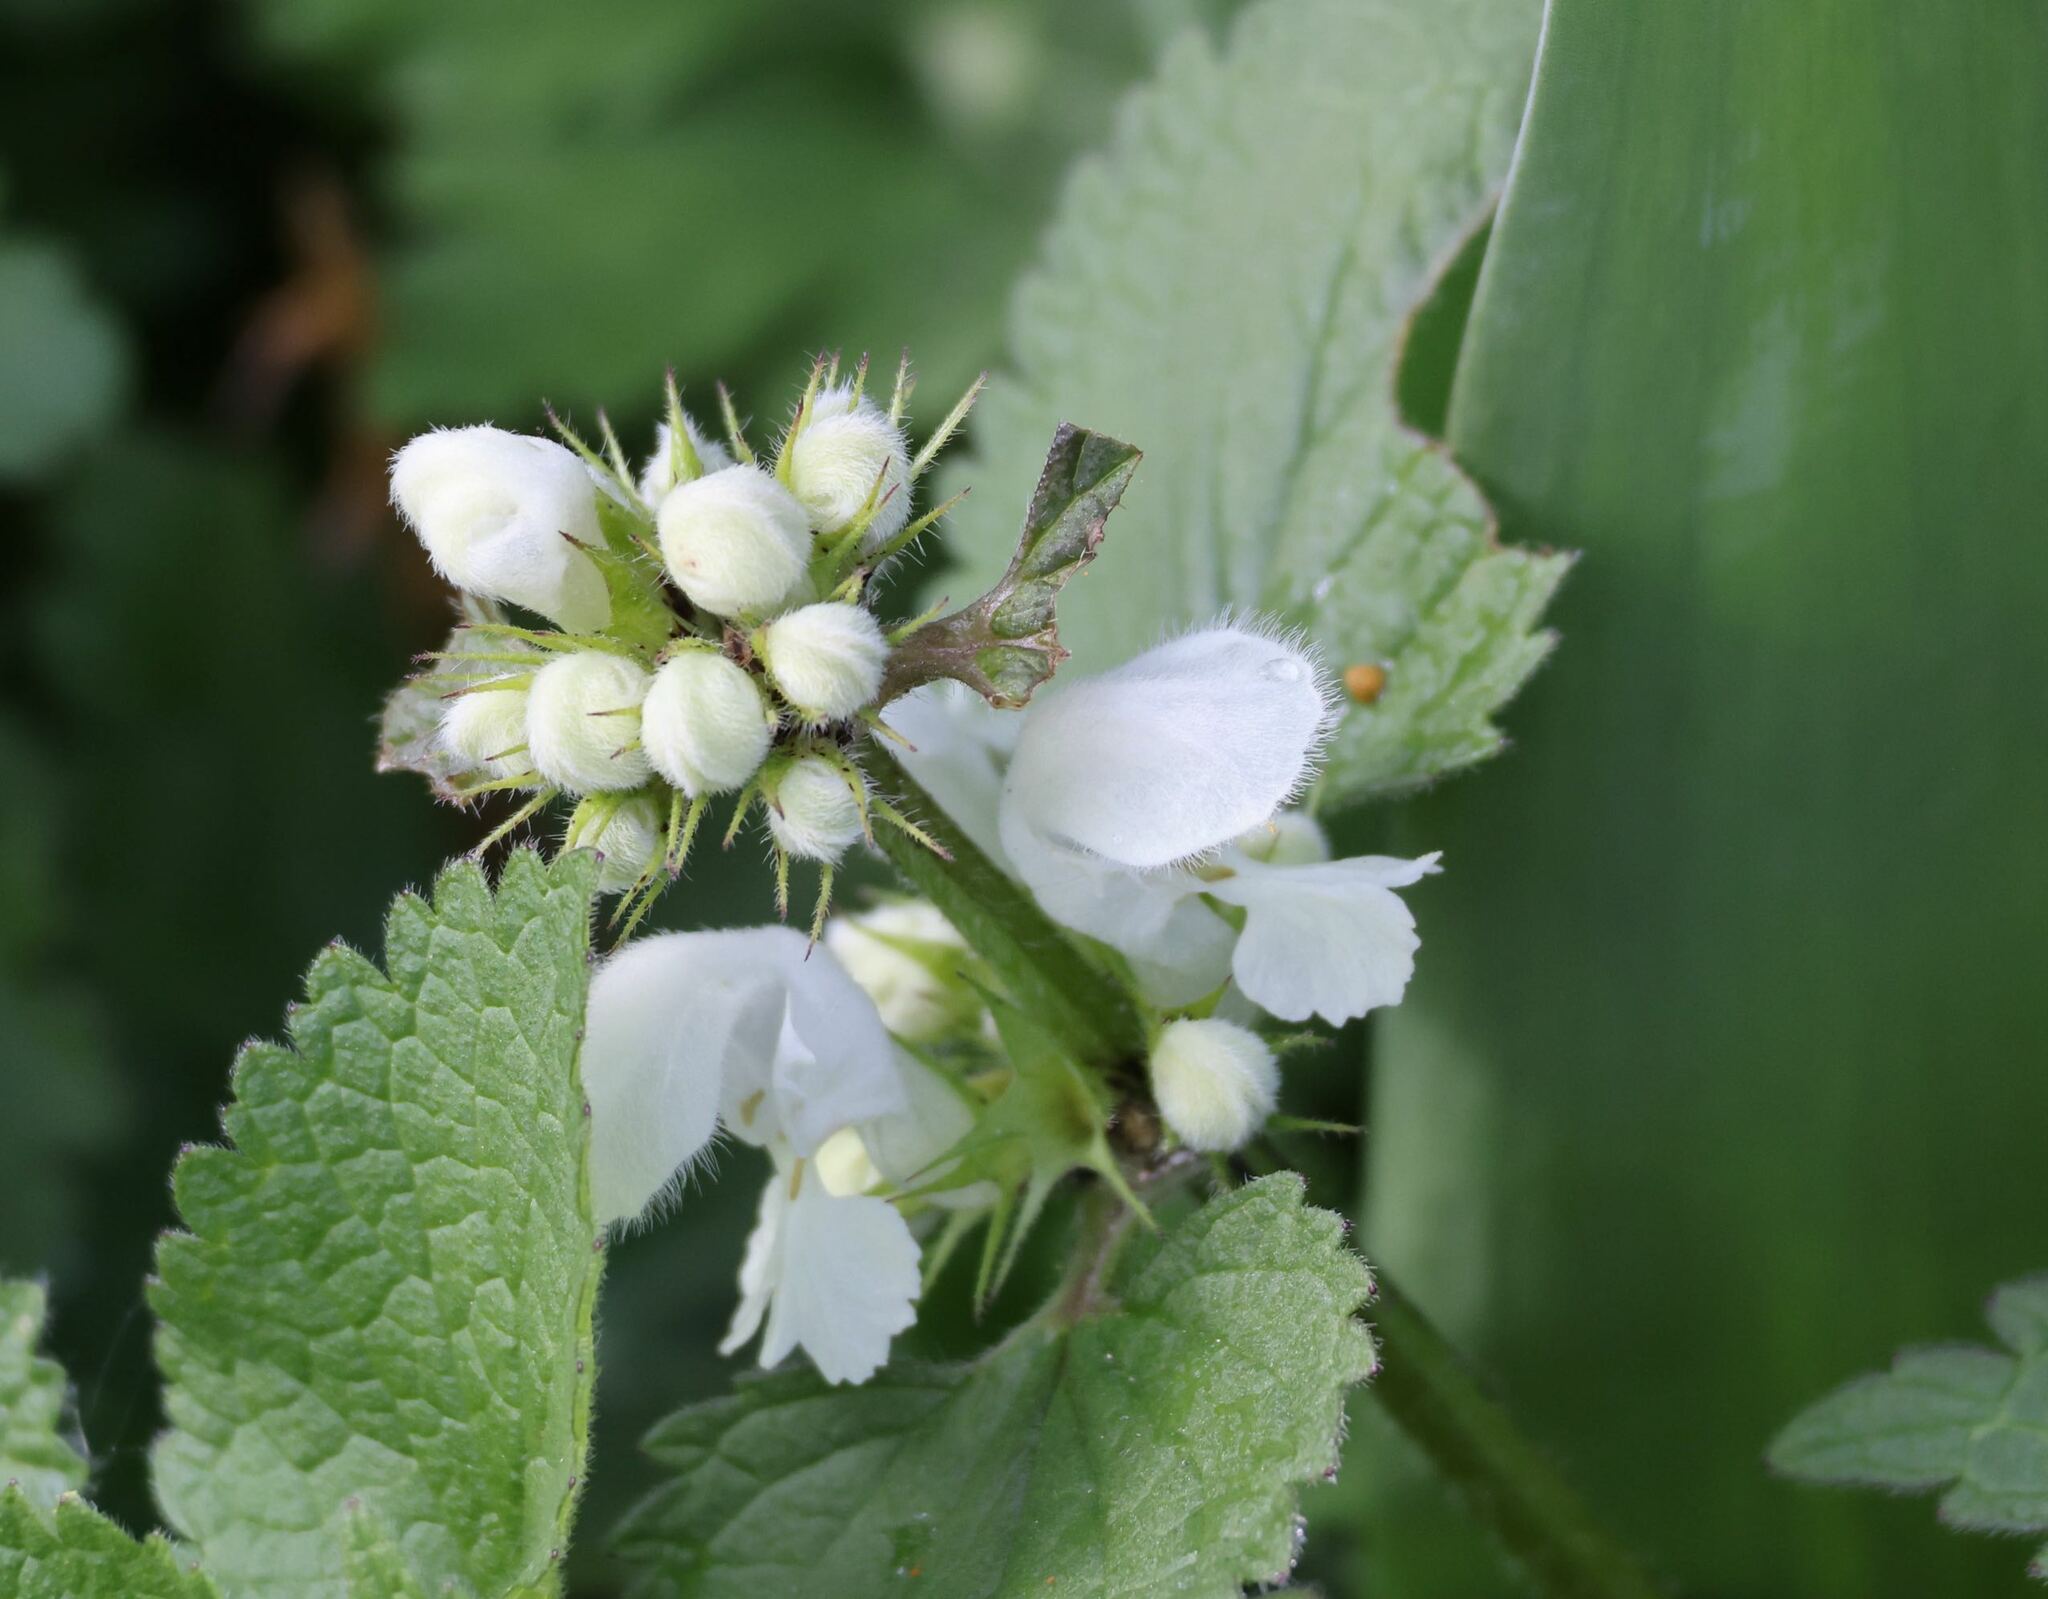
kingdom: Plantae
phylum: Tracheophyta
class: Magnoliopsida
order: Lamiales
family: Lamiaceae
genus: Lamium
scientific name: Lamium album
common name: White dead-nettle
